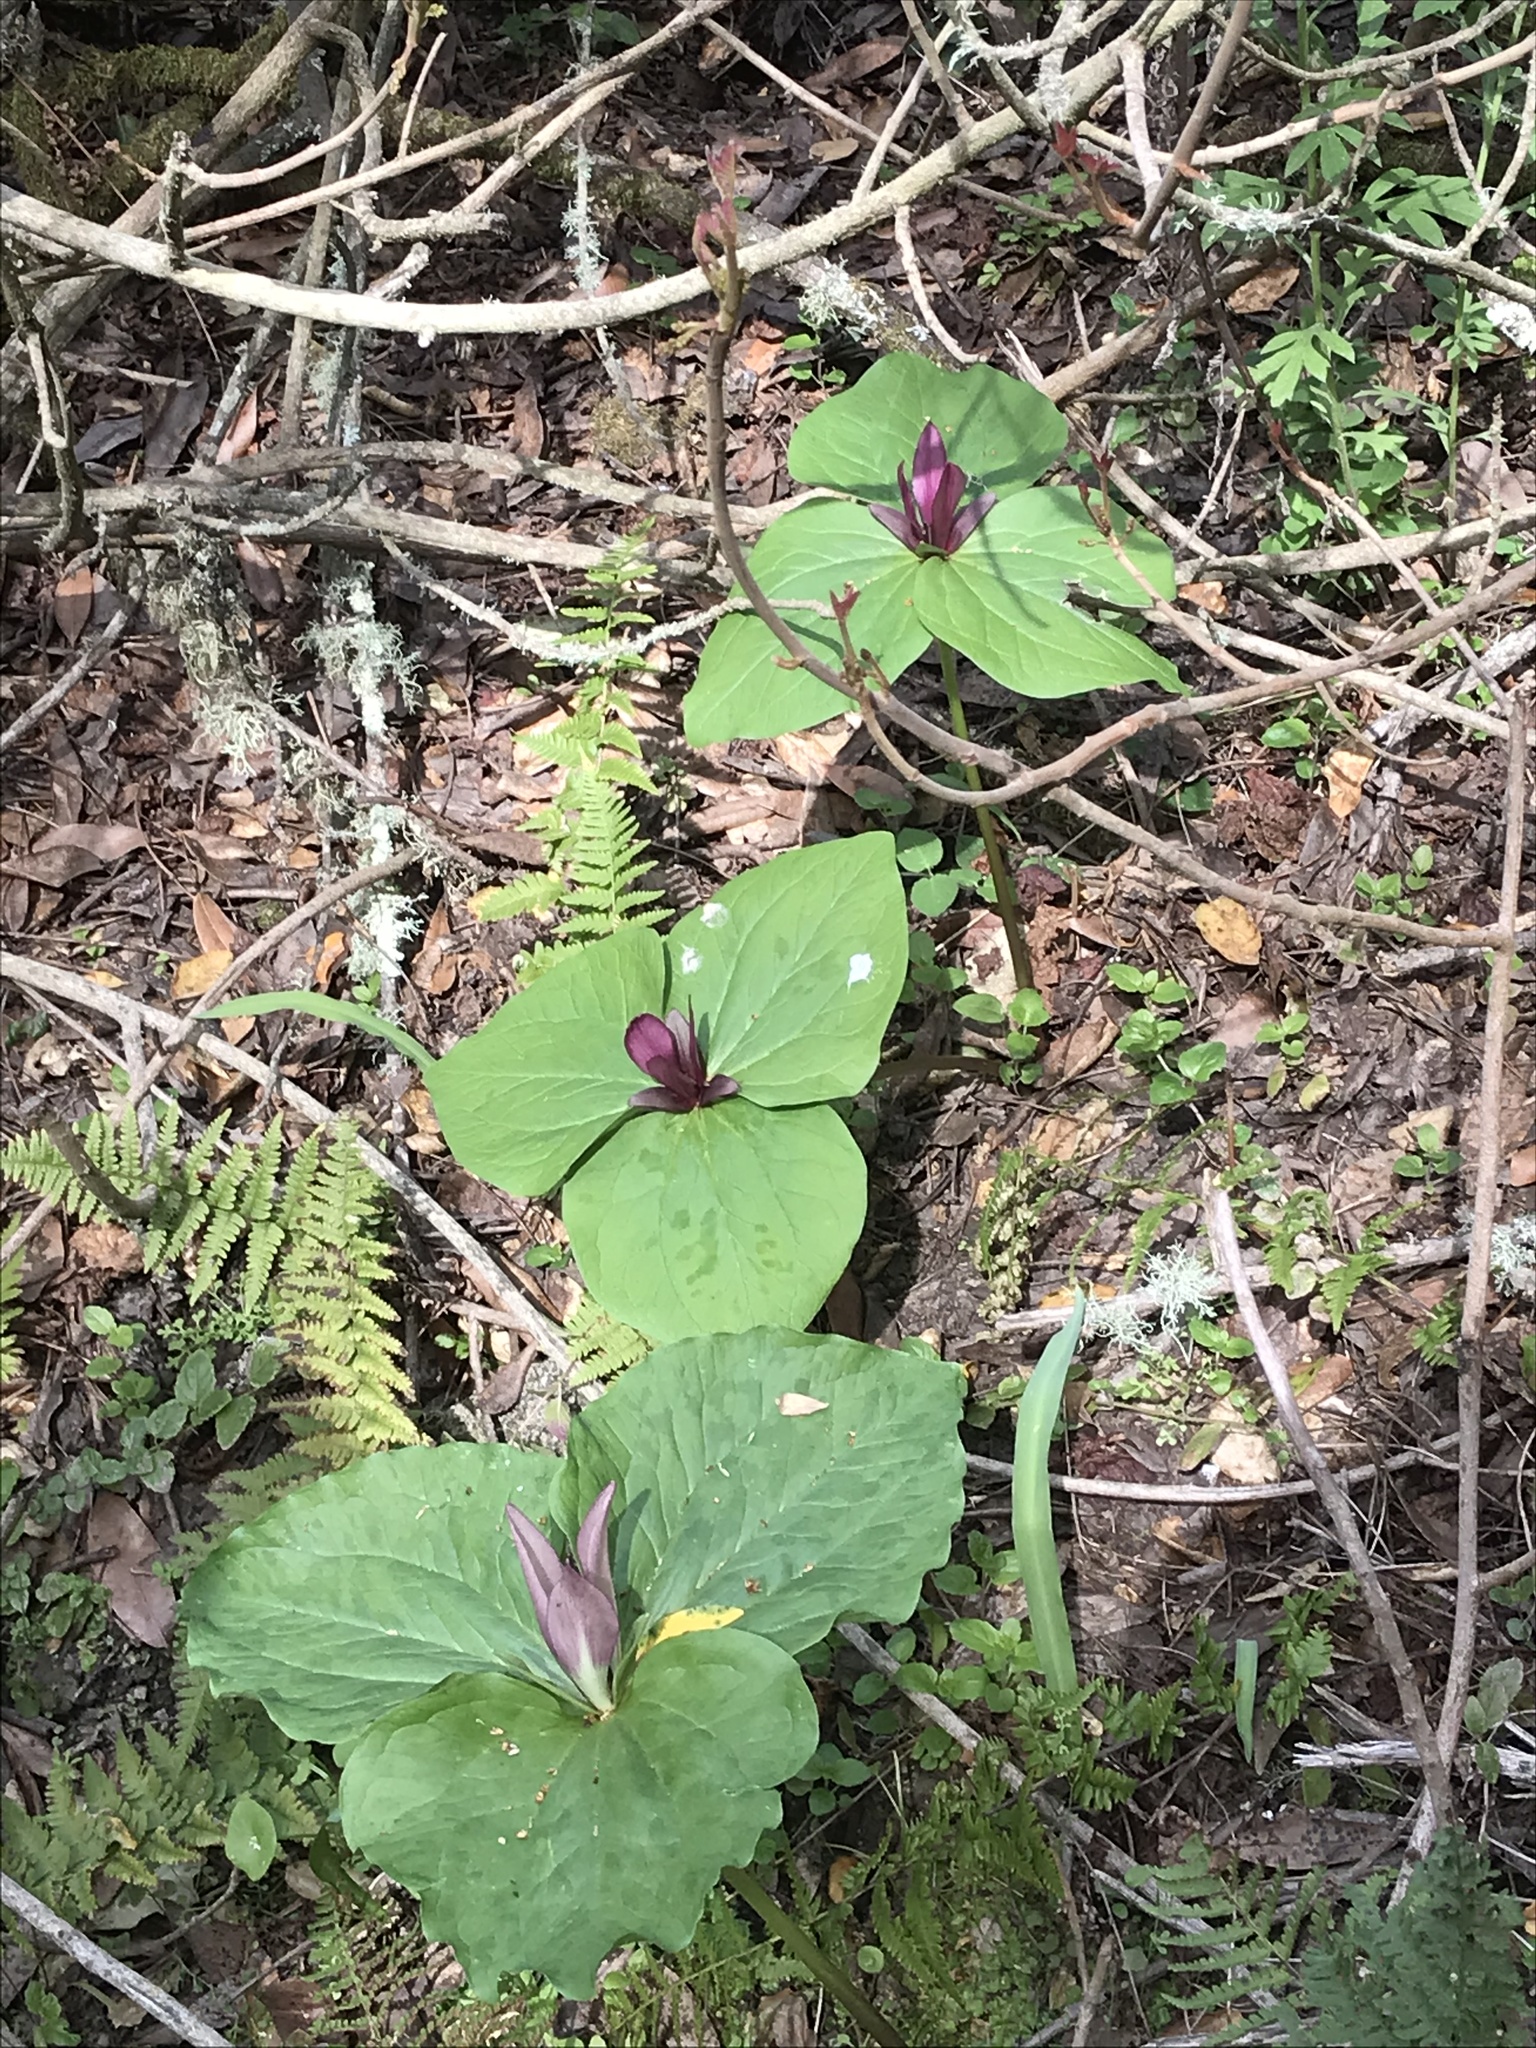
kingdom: Plantae
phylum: Tracheophyta
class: Liliopsida
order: Liliales
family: Melanthiaceae
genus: Trillium
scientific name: Trillium chloropetalum
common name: Giant trillium
